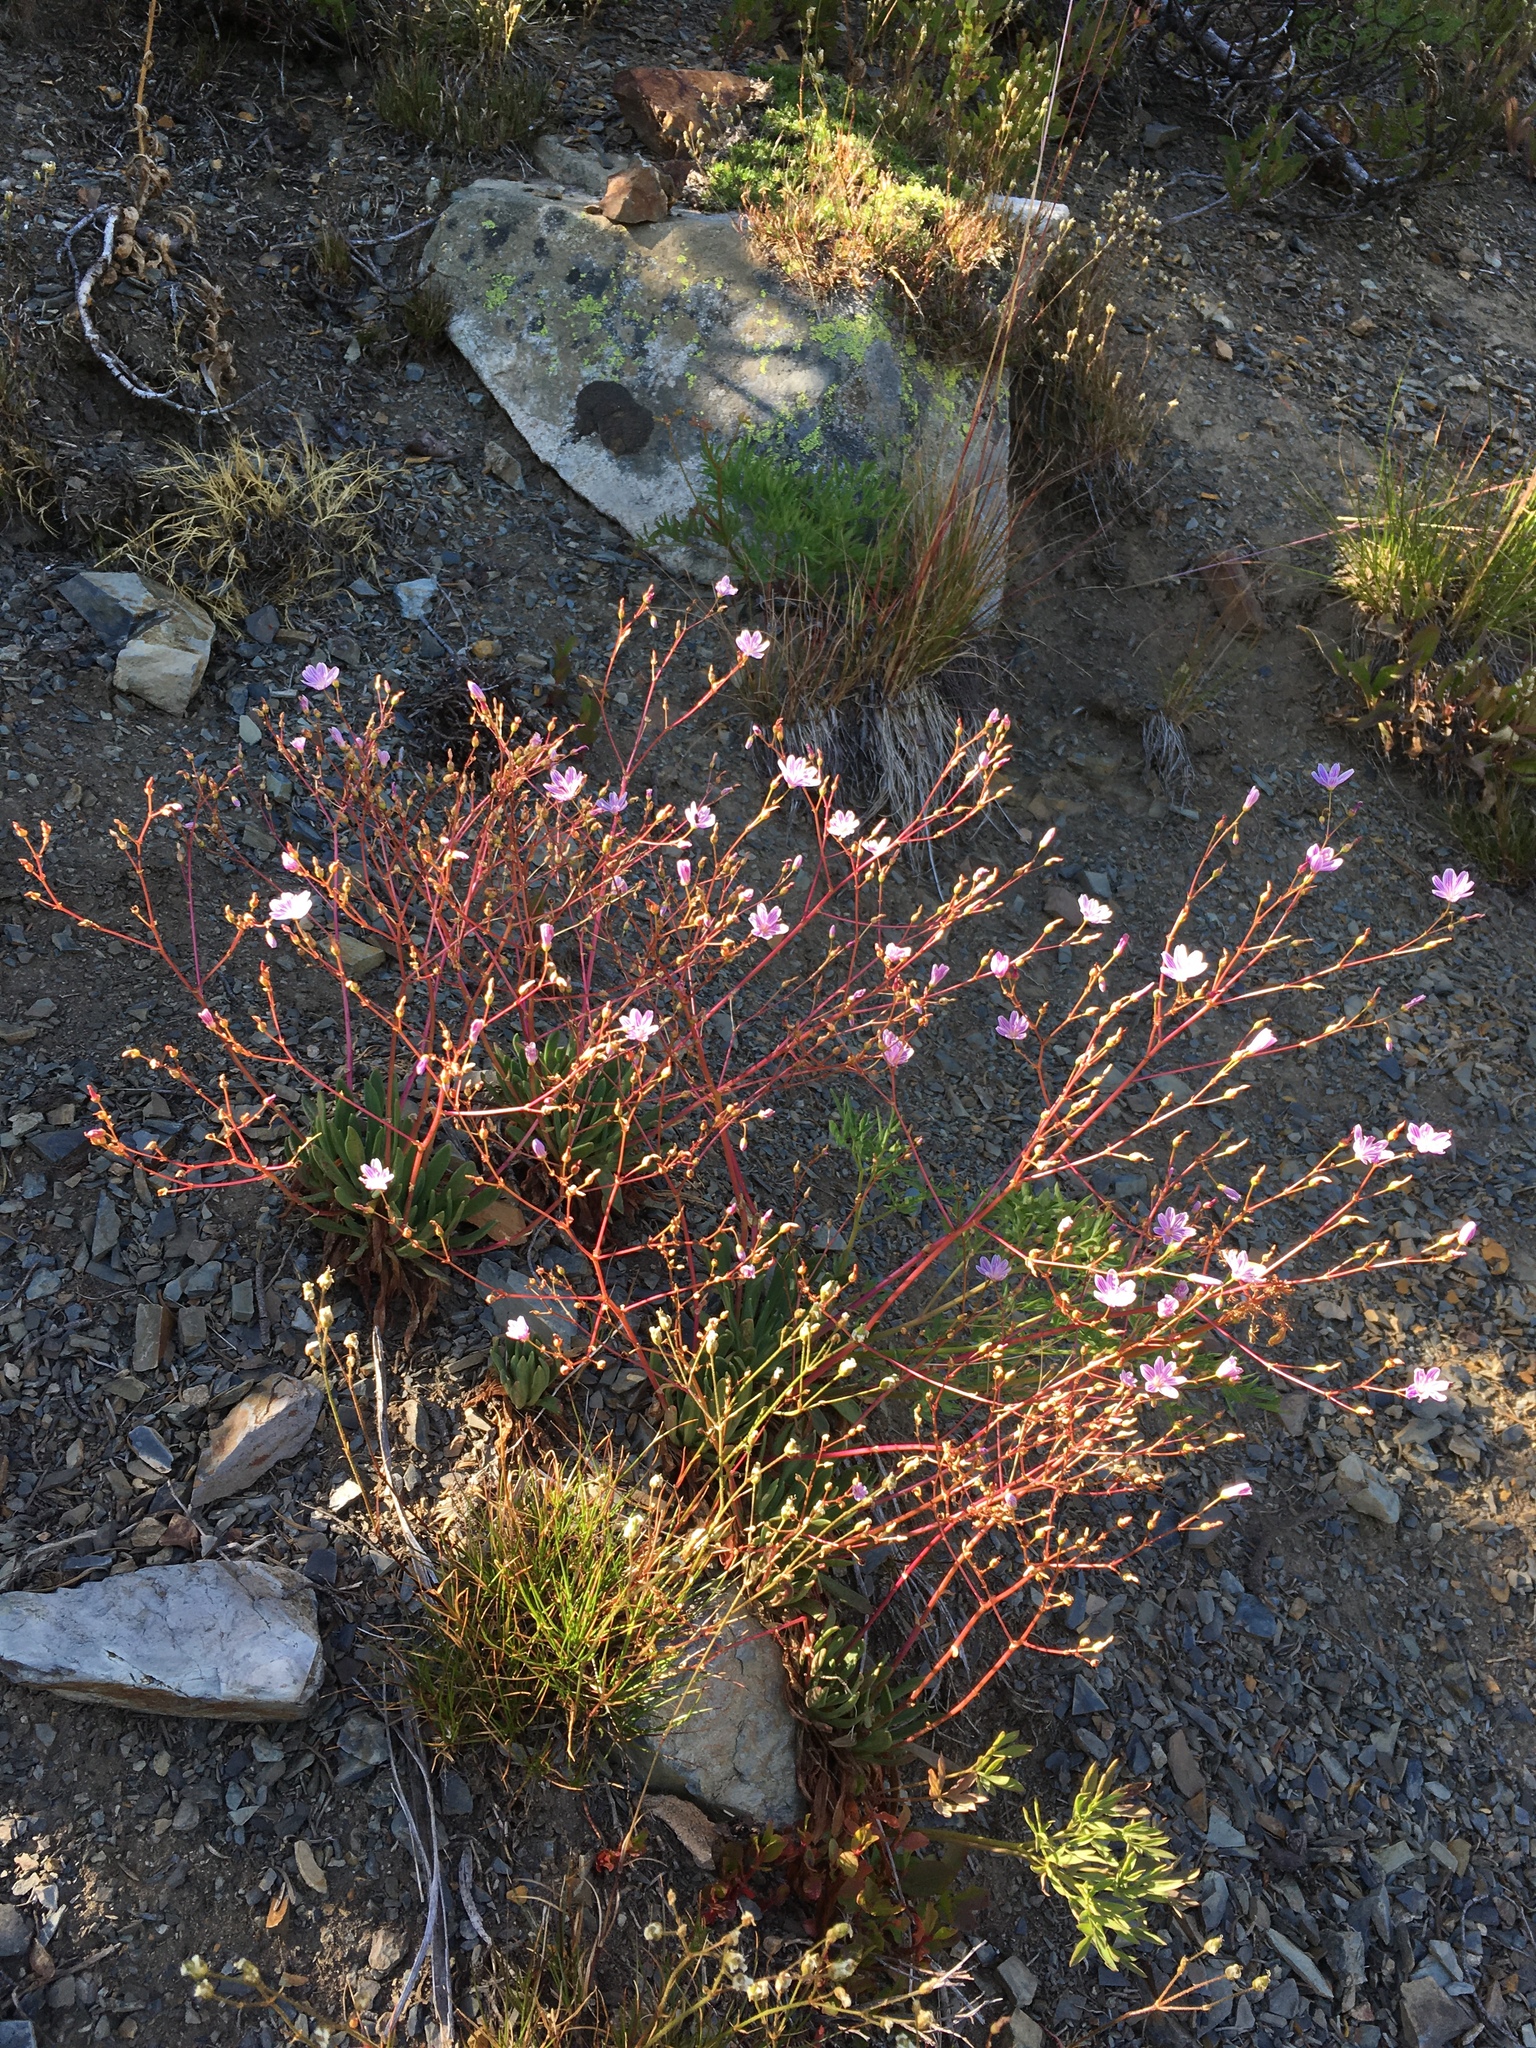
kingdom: Plantae
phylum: Tracheophyta
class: Magnoliopsida
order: Caryophyllales
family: Montiaceae
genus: Lewisia
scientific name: Lewisia columbiana
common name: Columbia lewisia
